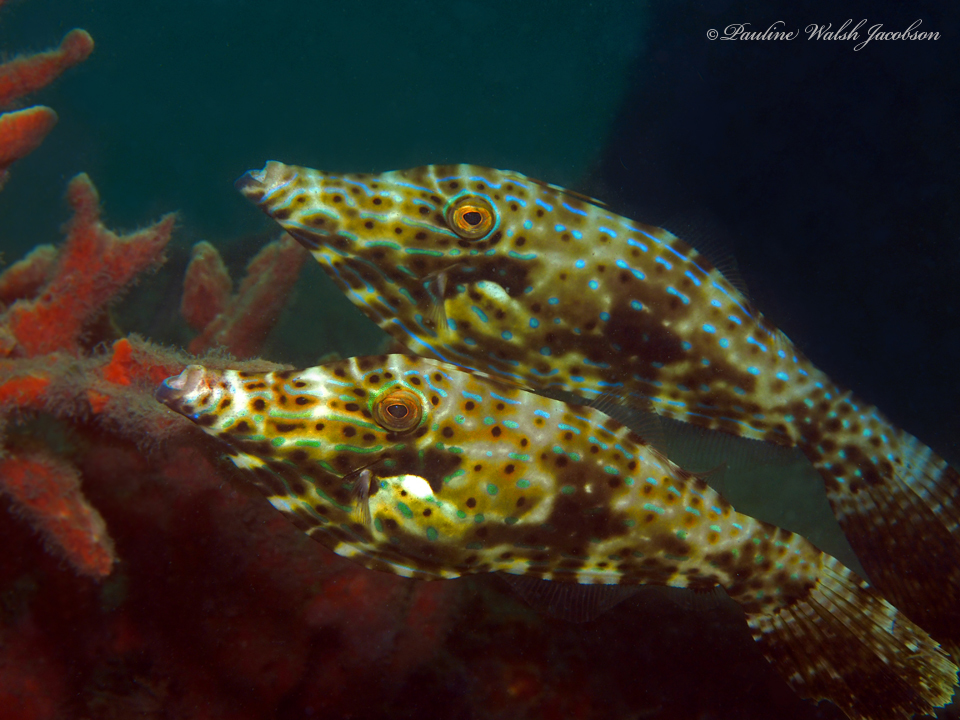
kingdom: Animalia
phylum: Chordata
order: Tetraodontiformes
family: Monacanthidae
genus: Aluterus
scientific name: Aluterus scriptus
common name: Scribbled leatherjacket filefish
